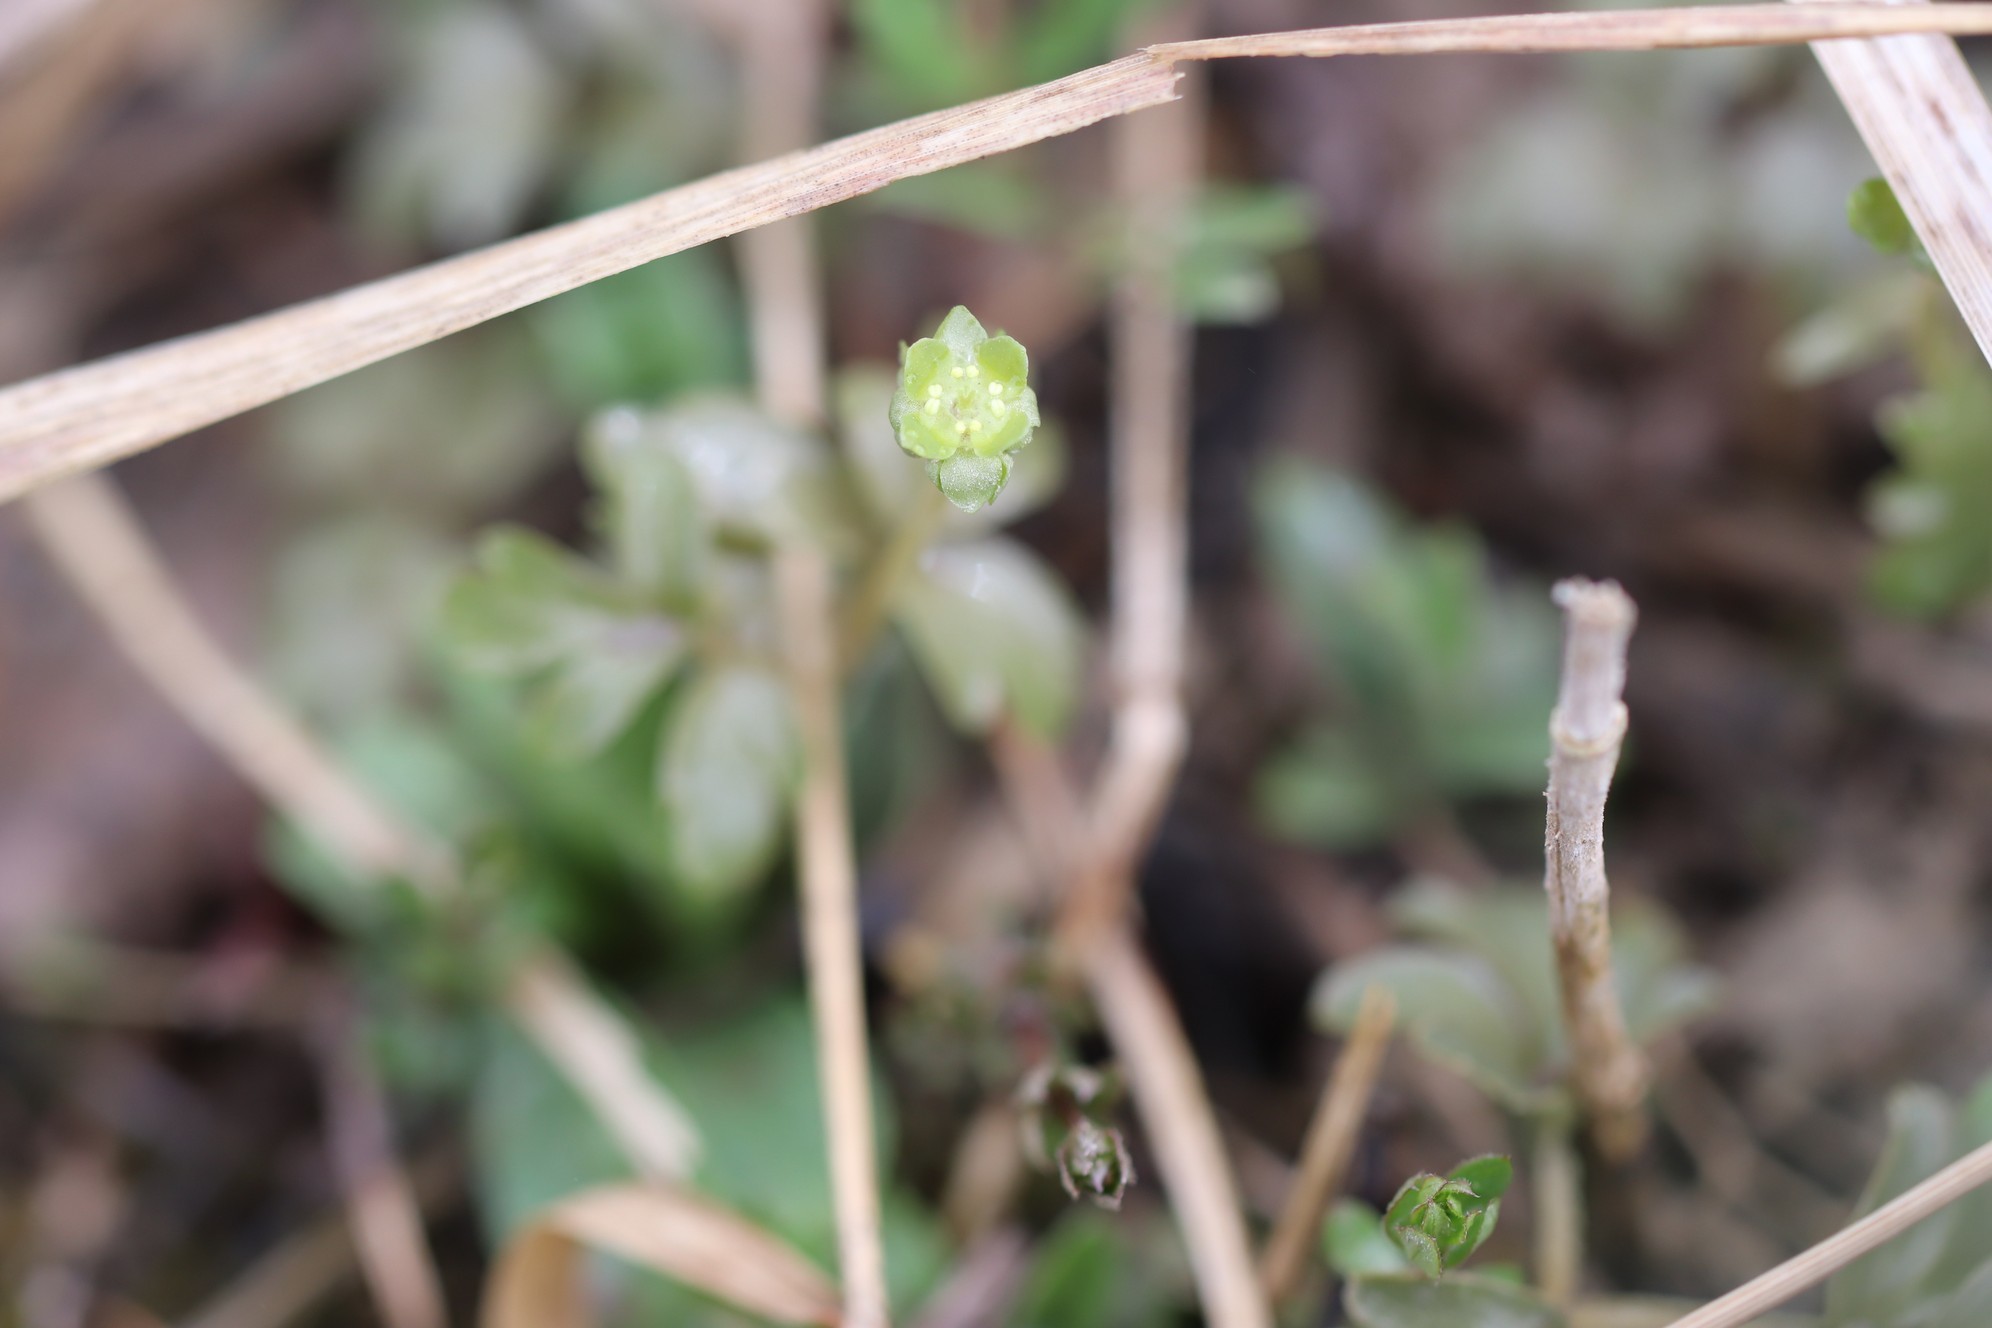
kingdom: Plantae
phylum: Tracheophyta
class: Magnoliopsida
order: Dipsacales
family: Viburnaceae
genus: Adoxa
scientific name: Adoxa moschatellina
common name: Moschatel
